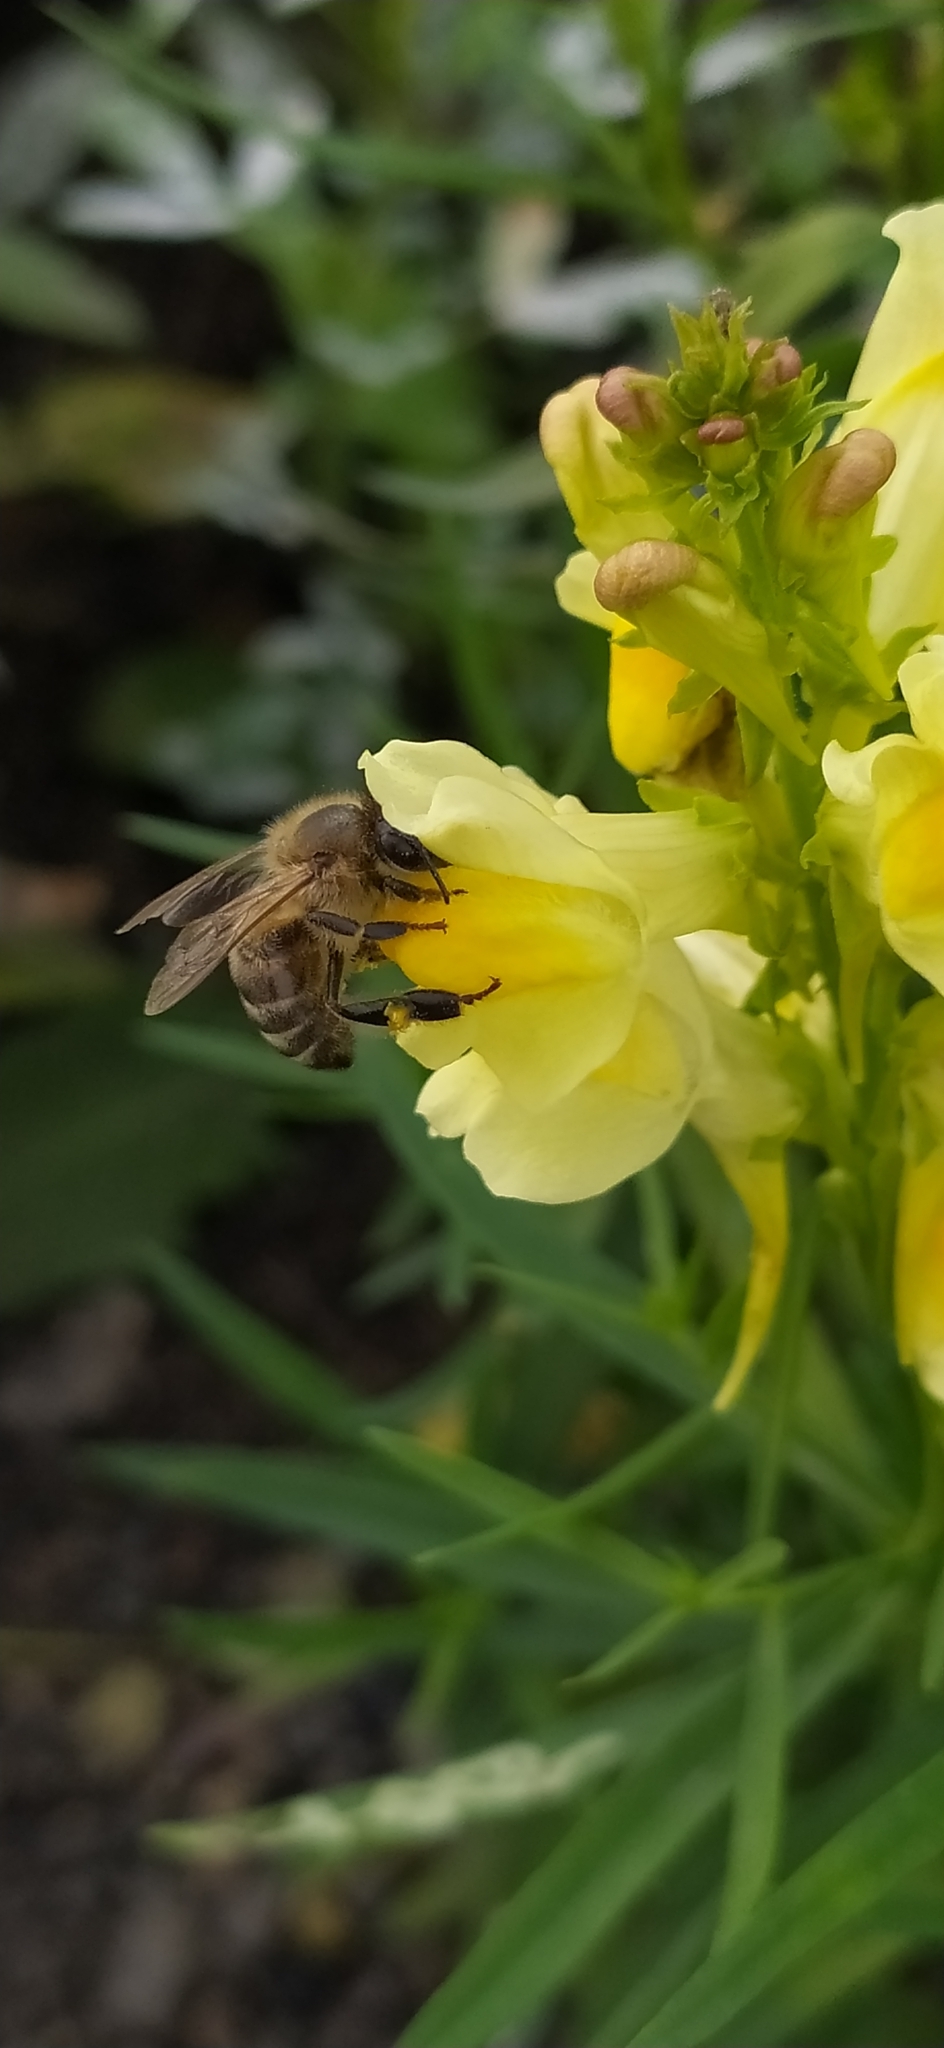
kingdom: Animalia
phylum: Arthropoda
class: Insecta
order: Hymenoptera
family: Apidae
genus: Apis
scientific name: Apis mellifera
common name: Honey bee
